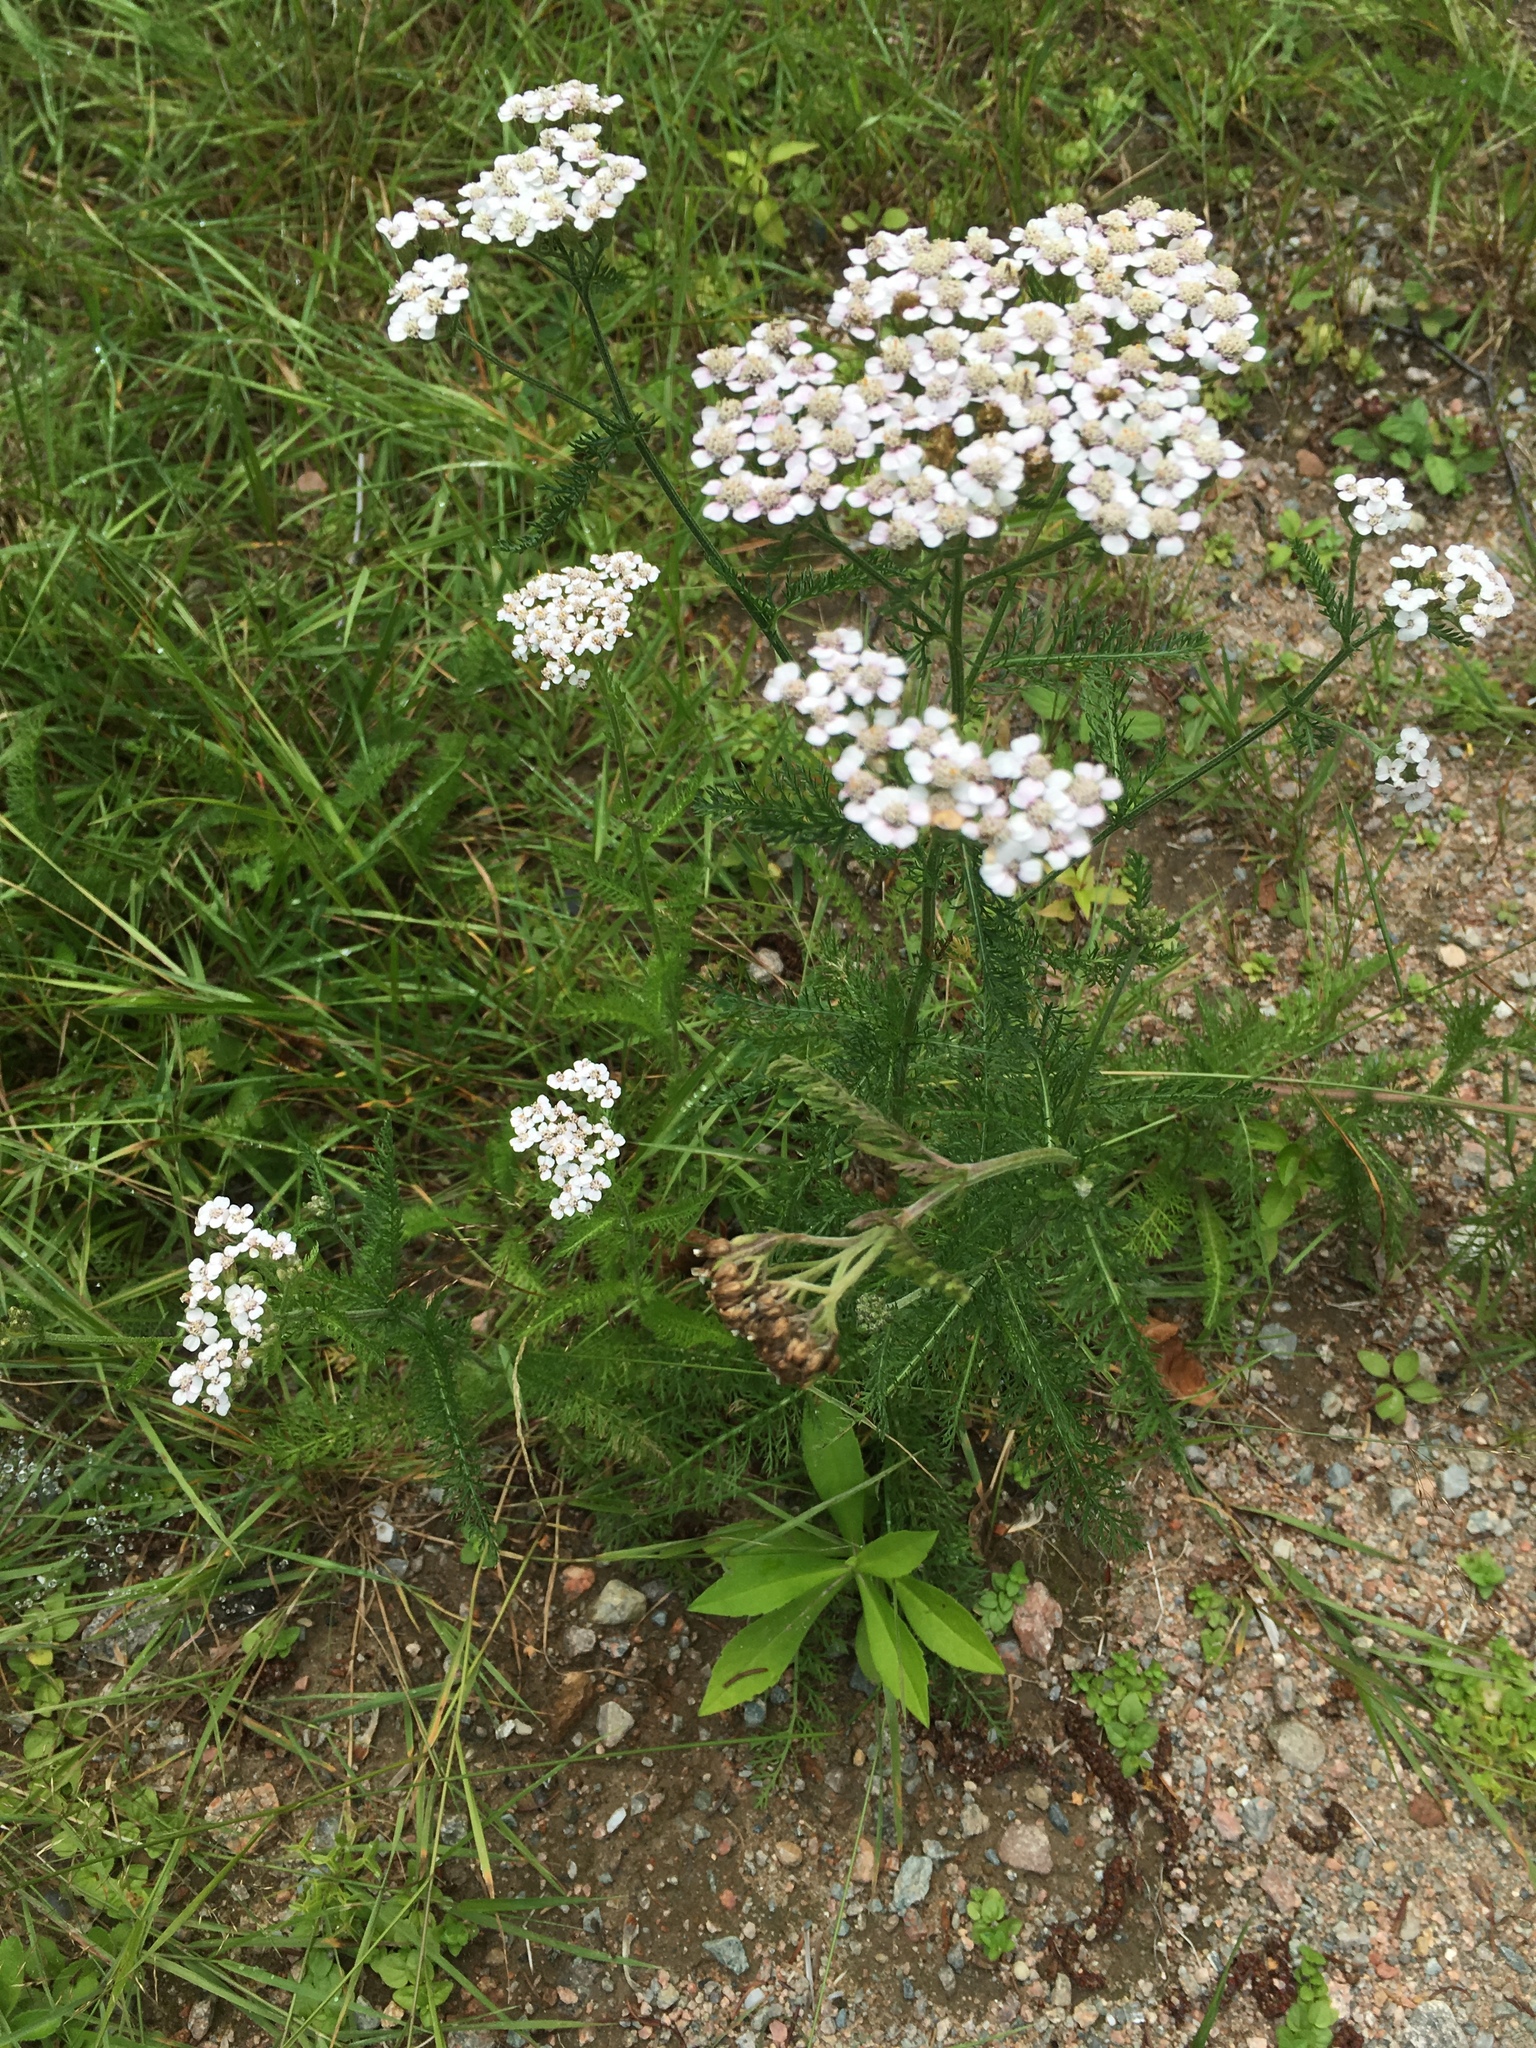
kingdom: Plantae
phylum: Tracheophyta
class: Magnoliopsida
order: Asterales
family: Asteraceae
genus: Achillea
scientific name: Achillea millefolium
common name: Yarrow
